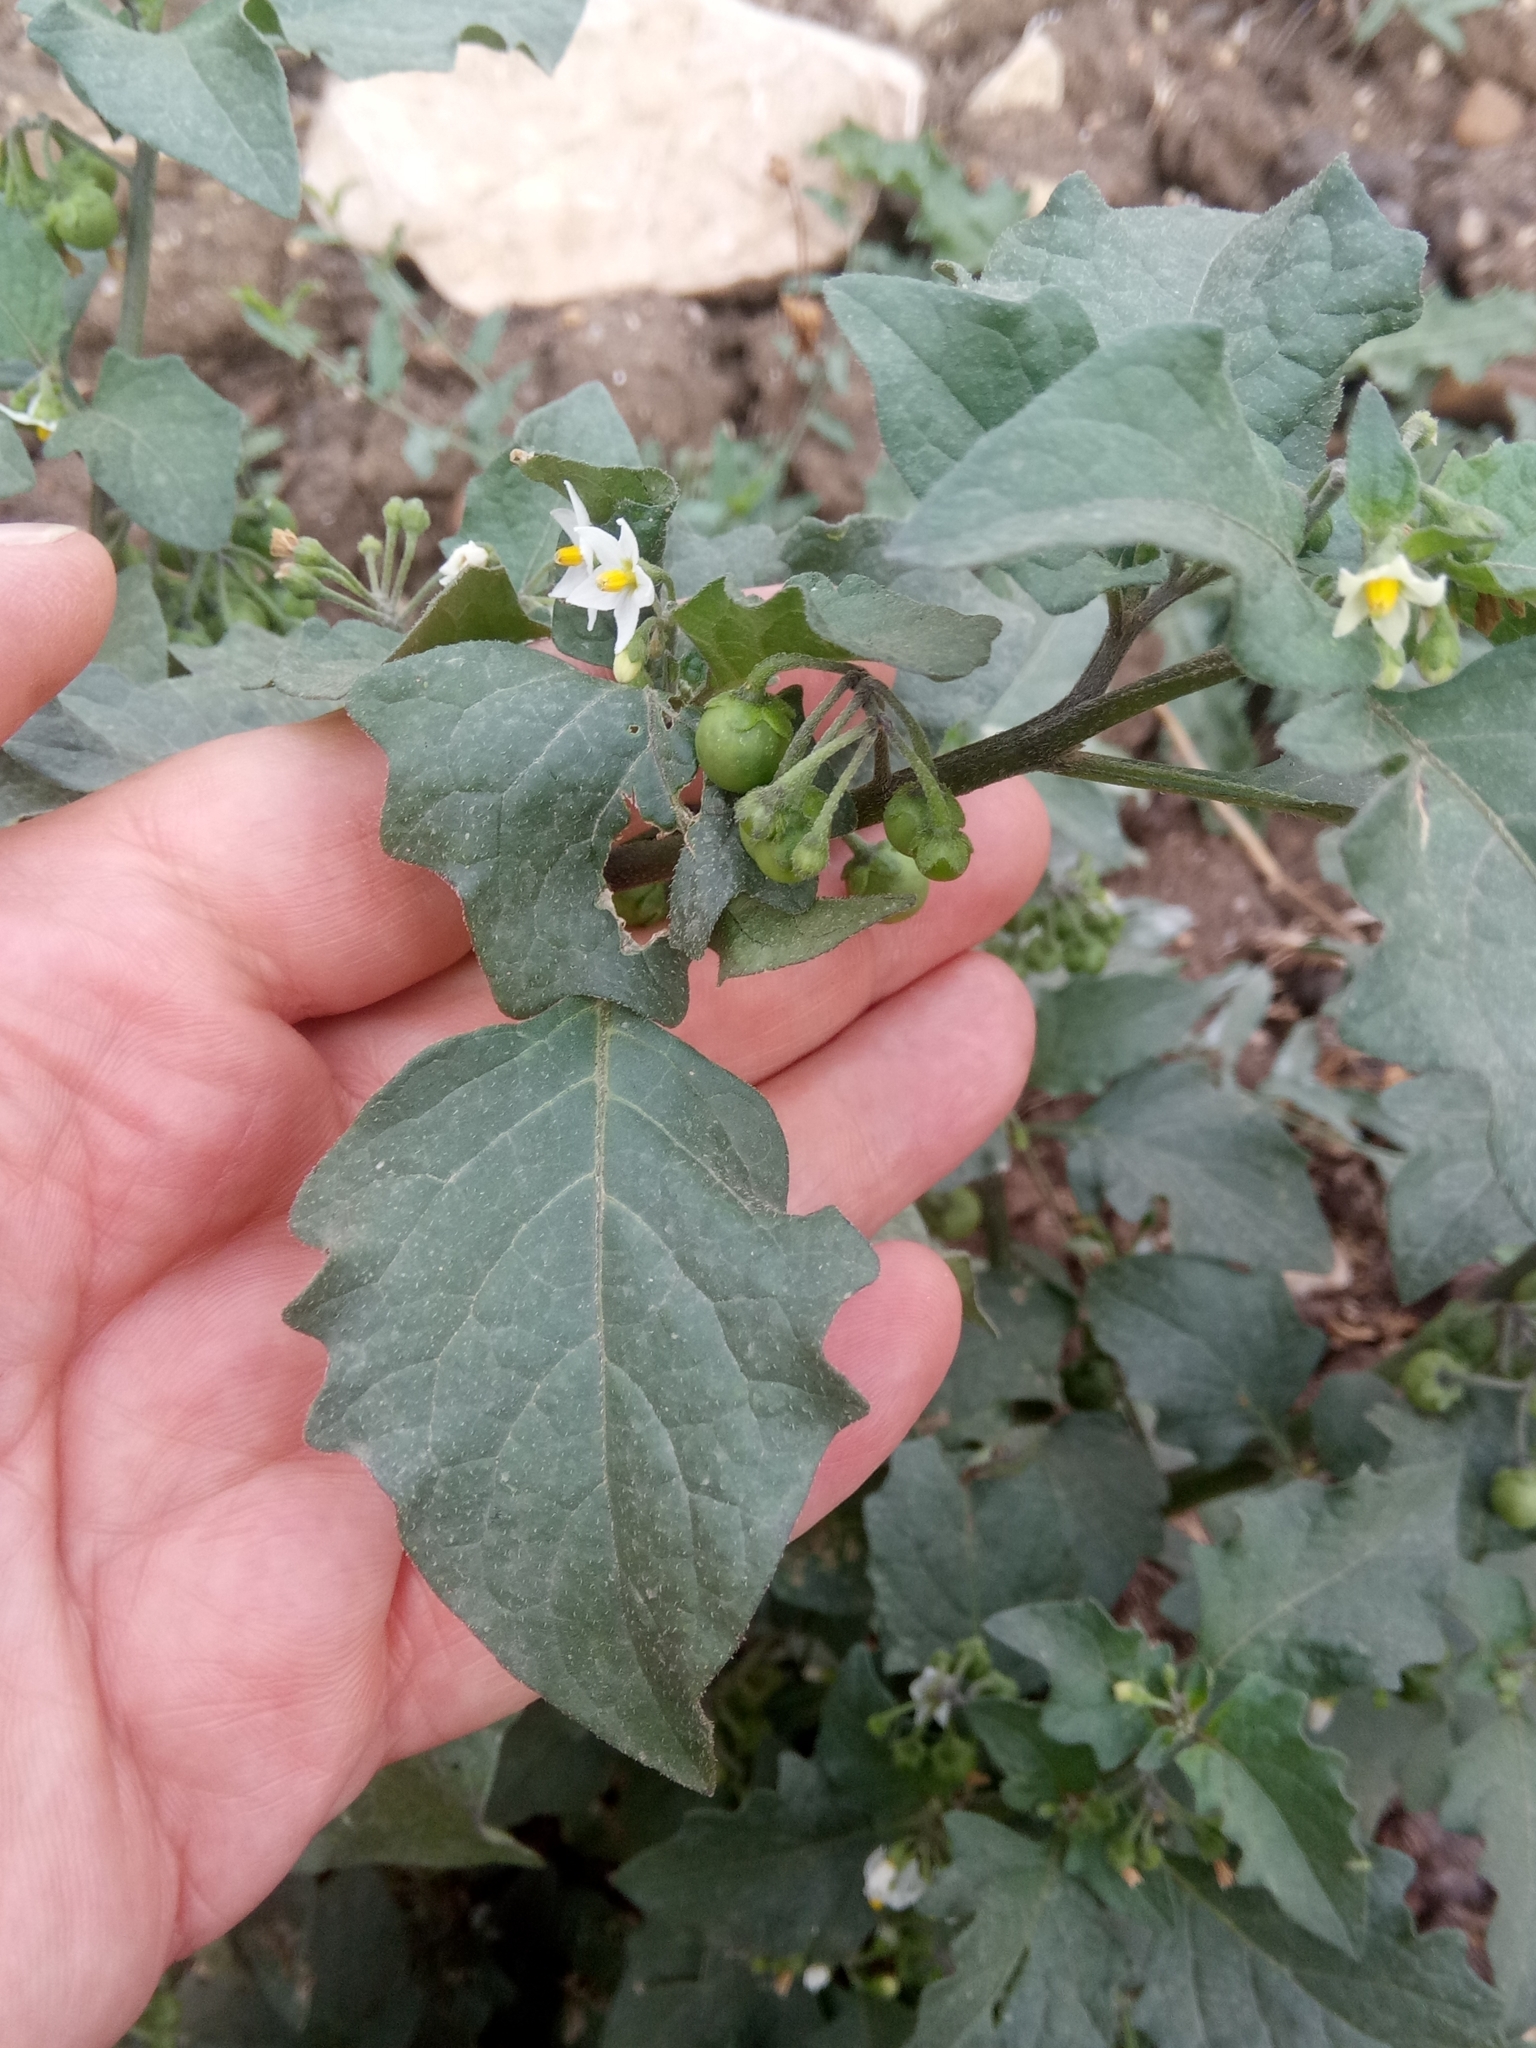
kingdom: Plantae
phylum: Tracheophyta
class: Magnoliopsida
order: Solanales
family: Solanaceae
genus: Solanum
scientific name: Solanum nigrum
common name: Black nightshade
